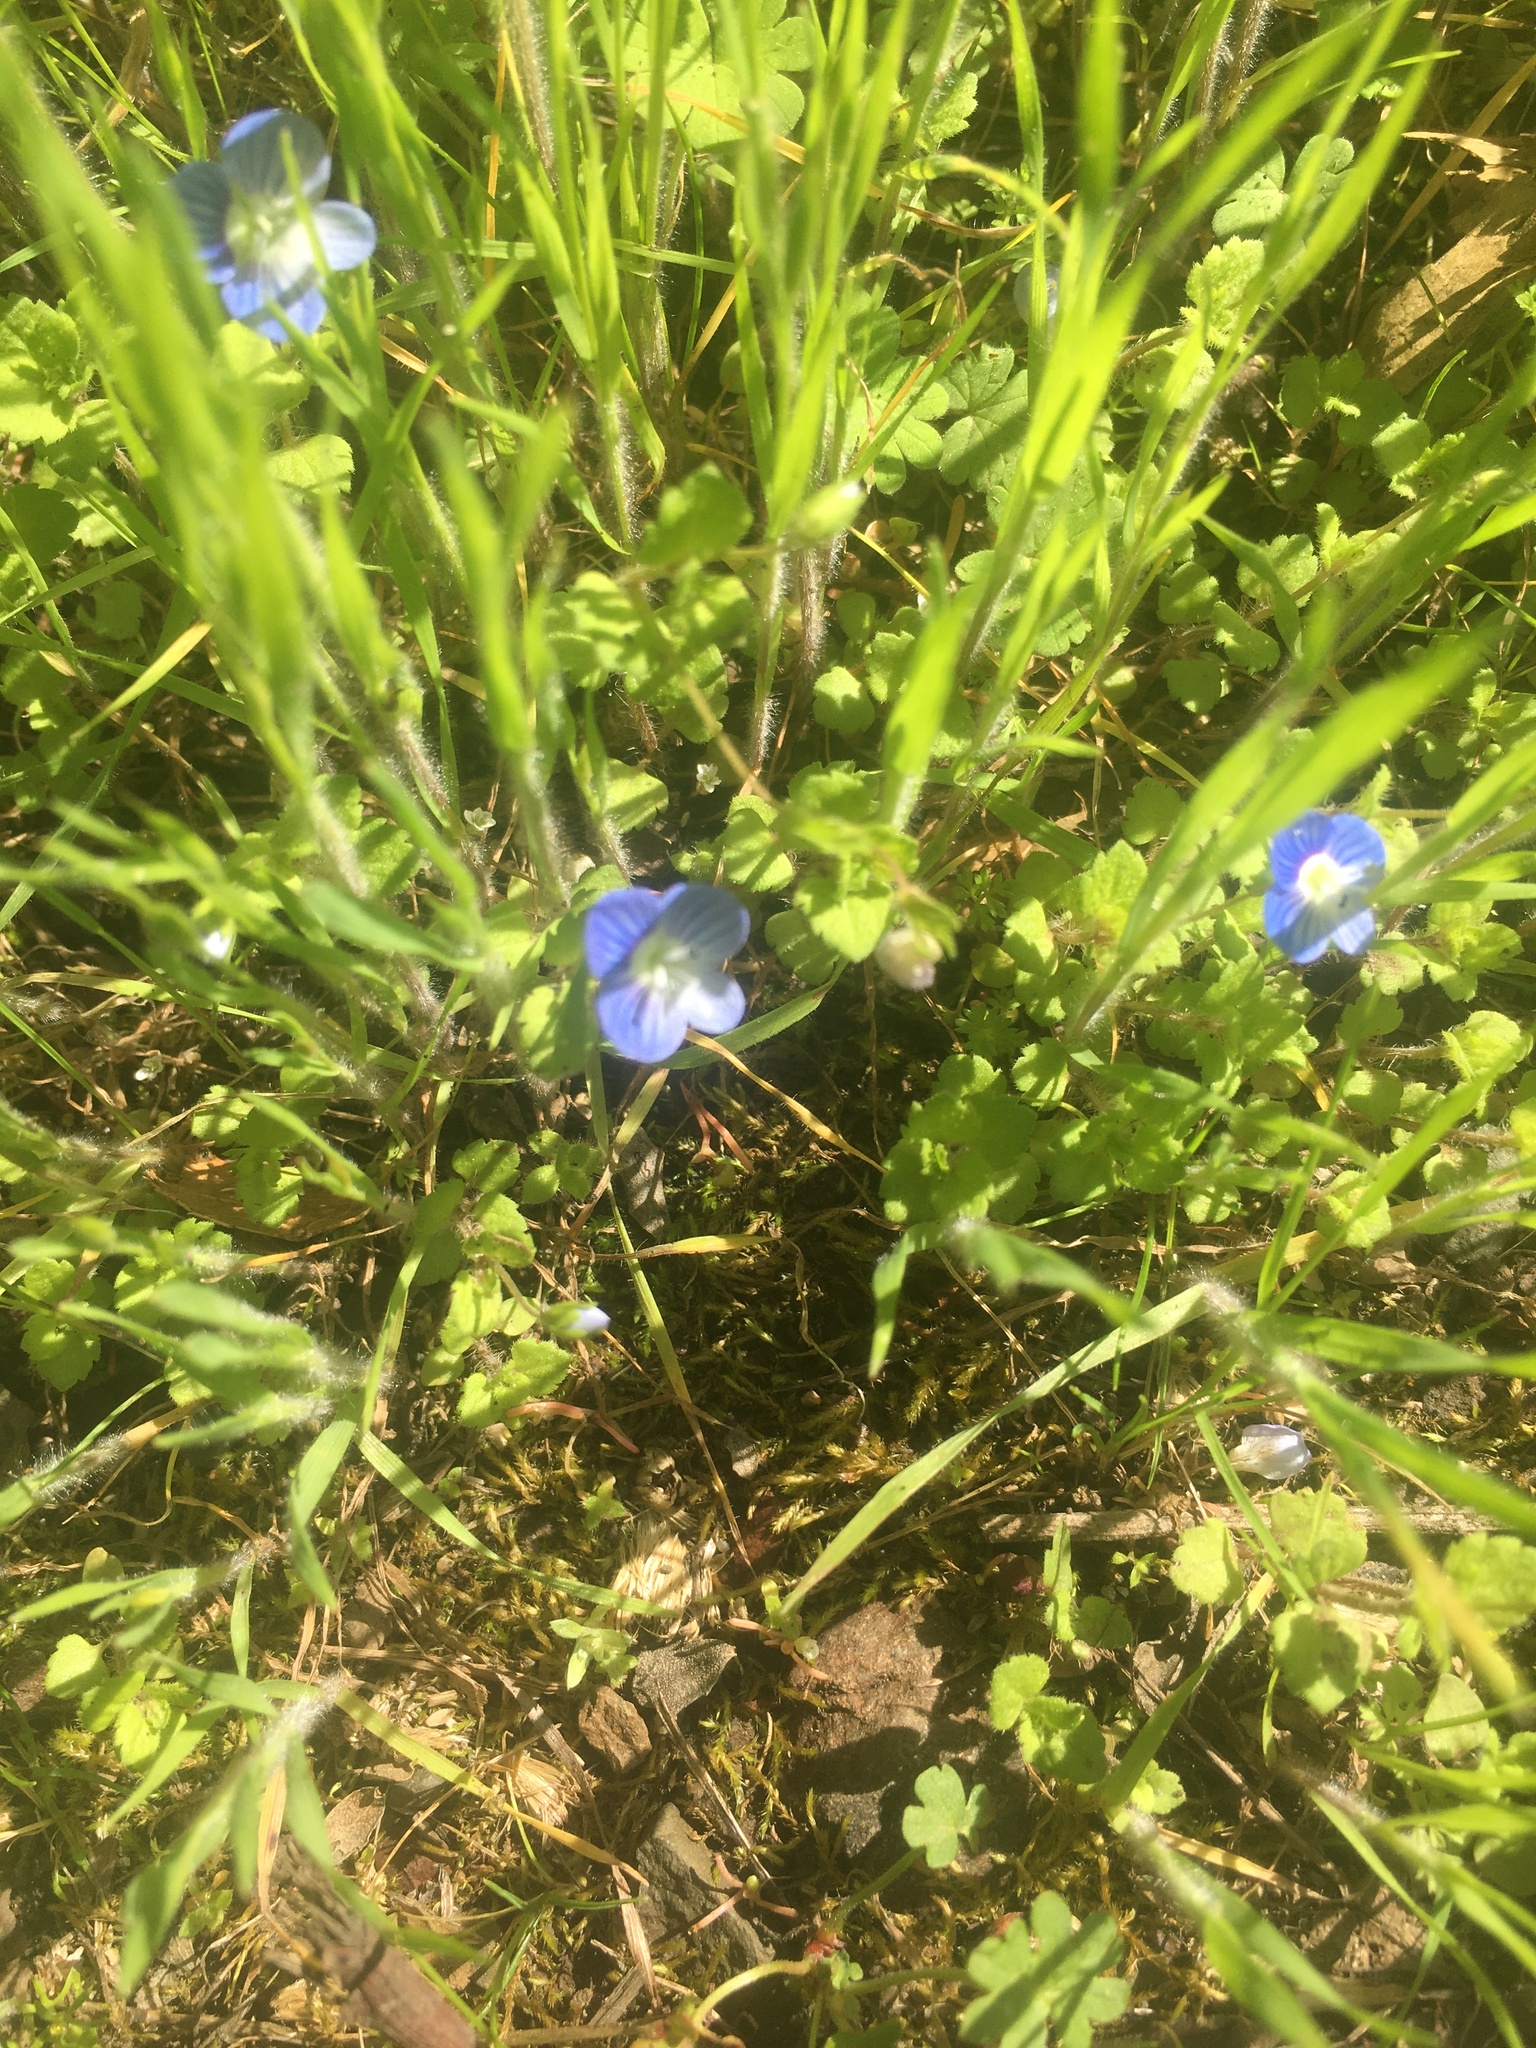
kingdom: Plantae
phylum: Tracheophyta
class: Magnoliopsida
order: Lamiales
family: Plantaginaceae
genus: Veronica
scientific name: Veronica persica
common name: Common field-speedwell
